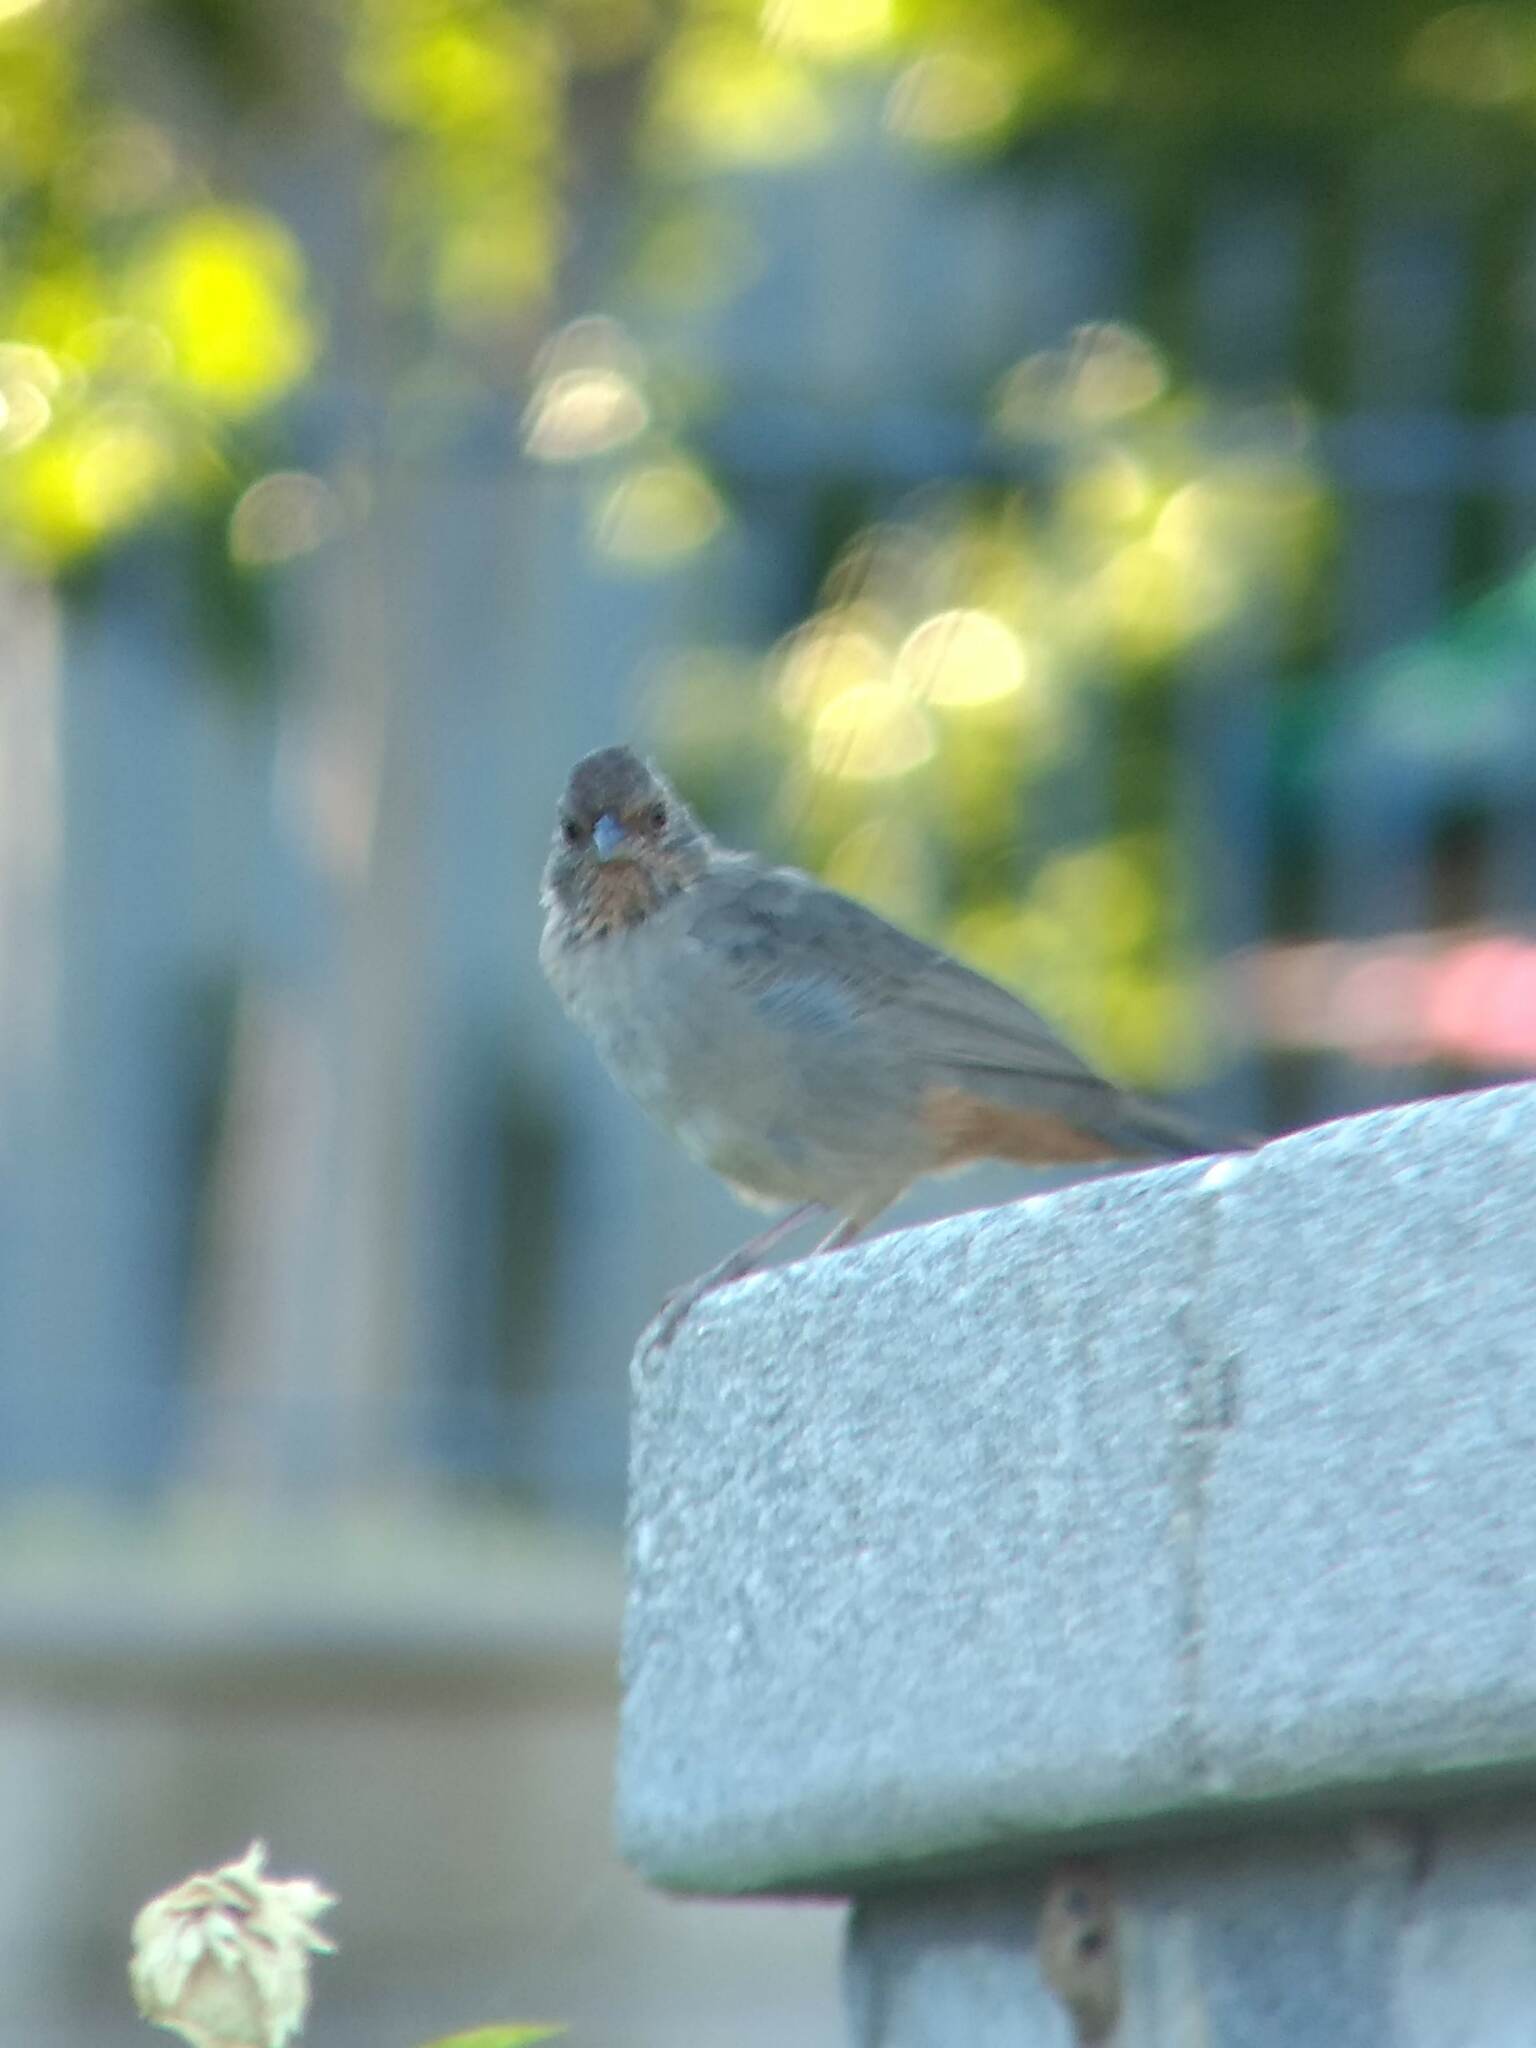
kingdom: Animalia
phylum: Chordata
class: Aves
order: Passeriformes
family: Passerellidae
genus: Melozone
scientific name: Melozone crissalis
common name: California towhee
